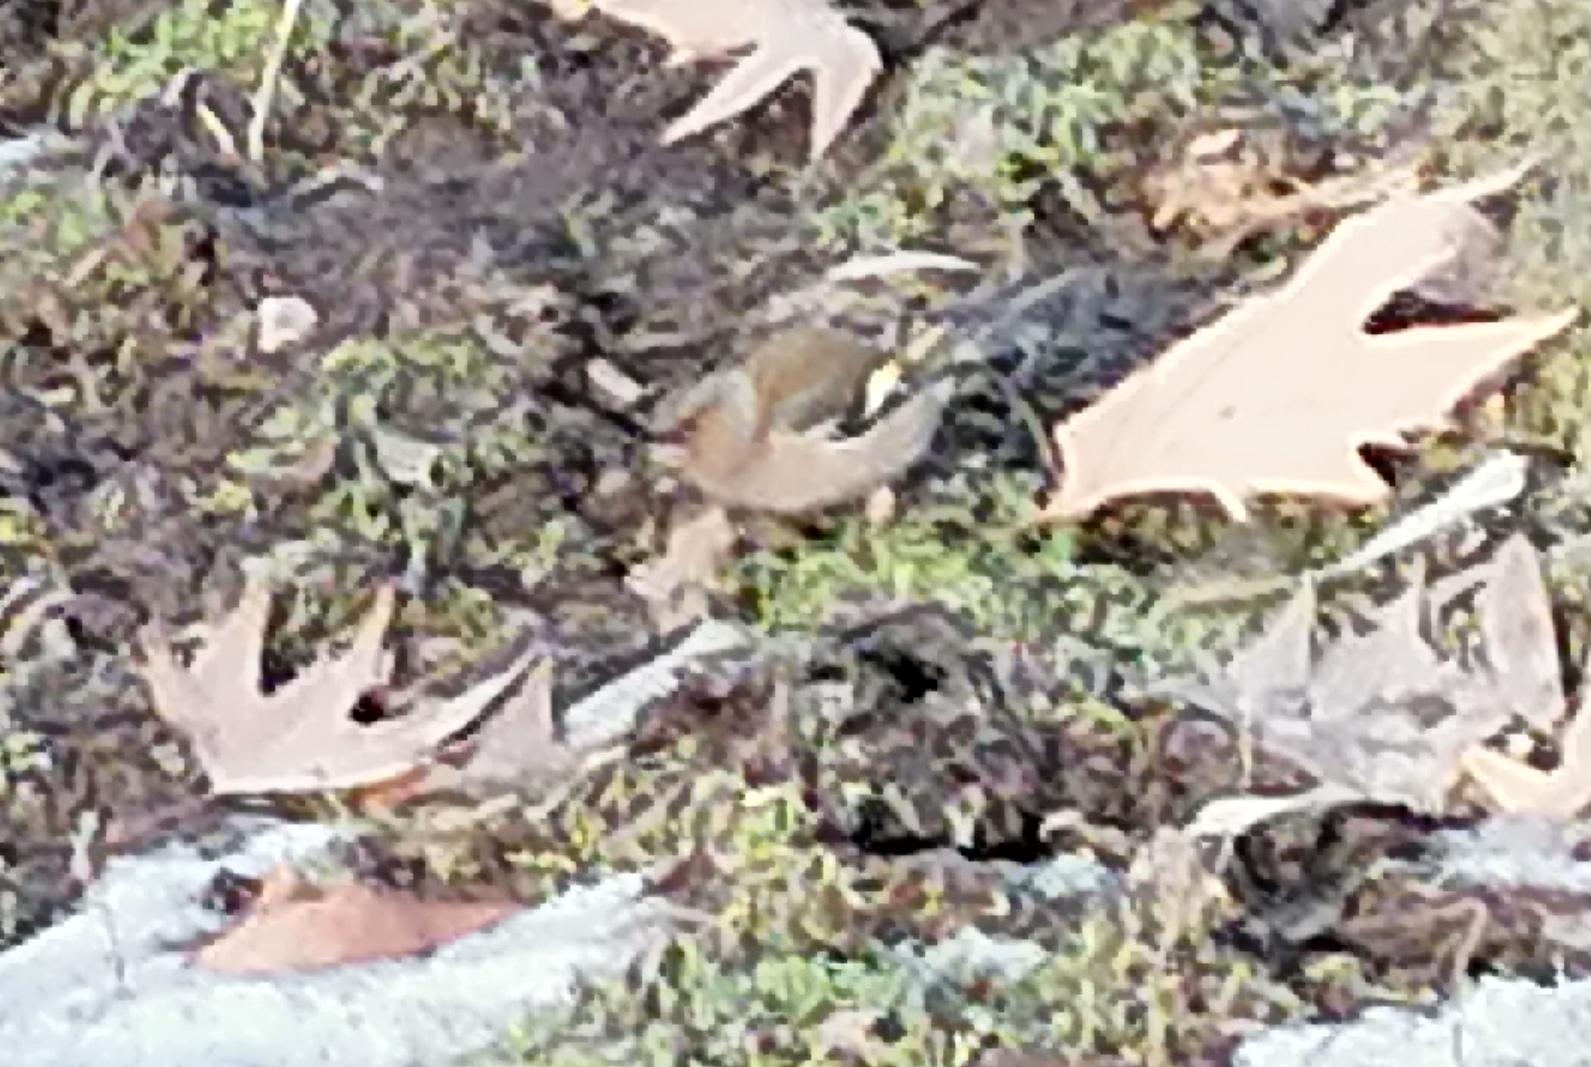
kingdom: Animalia
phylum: Chordata
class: Aves
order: Passeriformes
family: Fringillidae
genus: Fringilla
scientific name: Fringilla coelebs
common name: Common chaffinch
